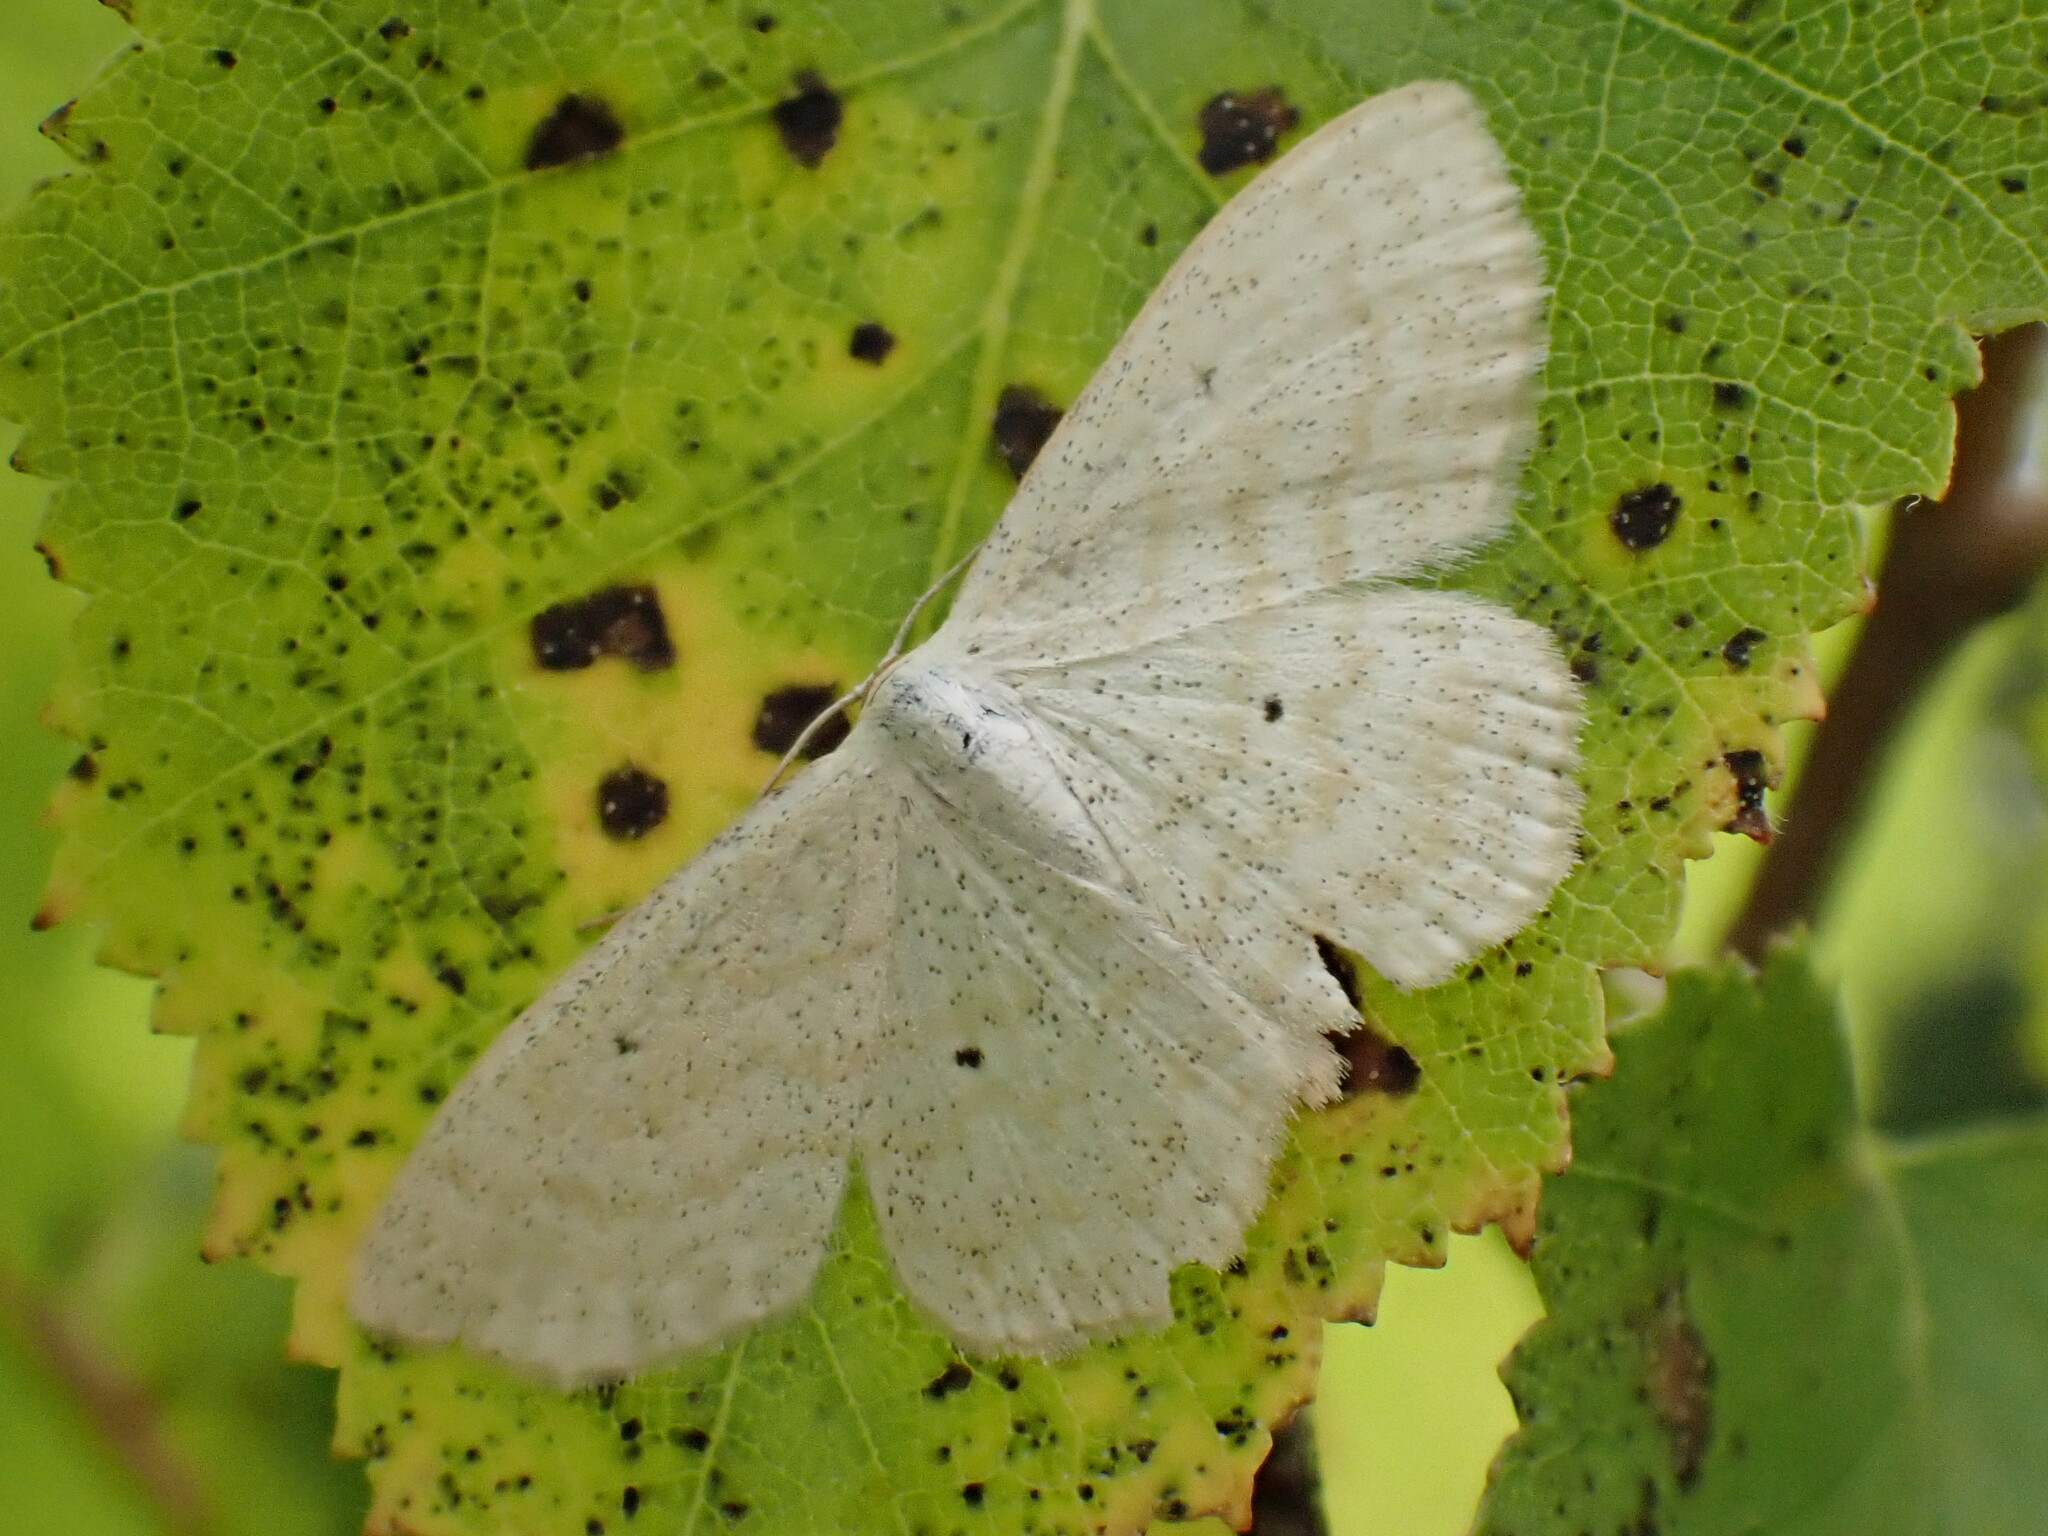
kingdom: Animalia
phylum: Arthropoda
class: Insecta
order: Lepidoptera
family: Geometridae
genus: Scopula
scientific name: Scopula immutata
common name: Lesser cream wave
